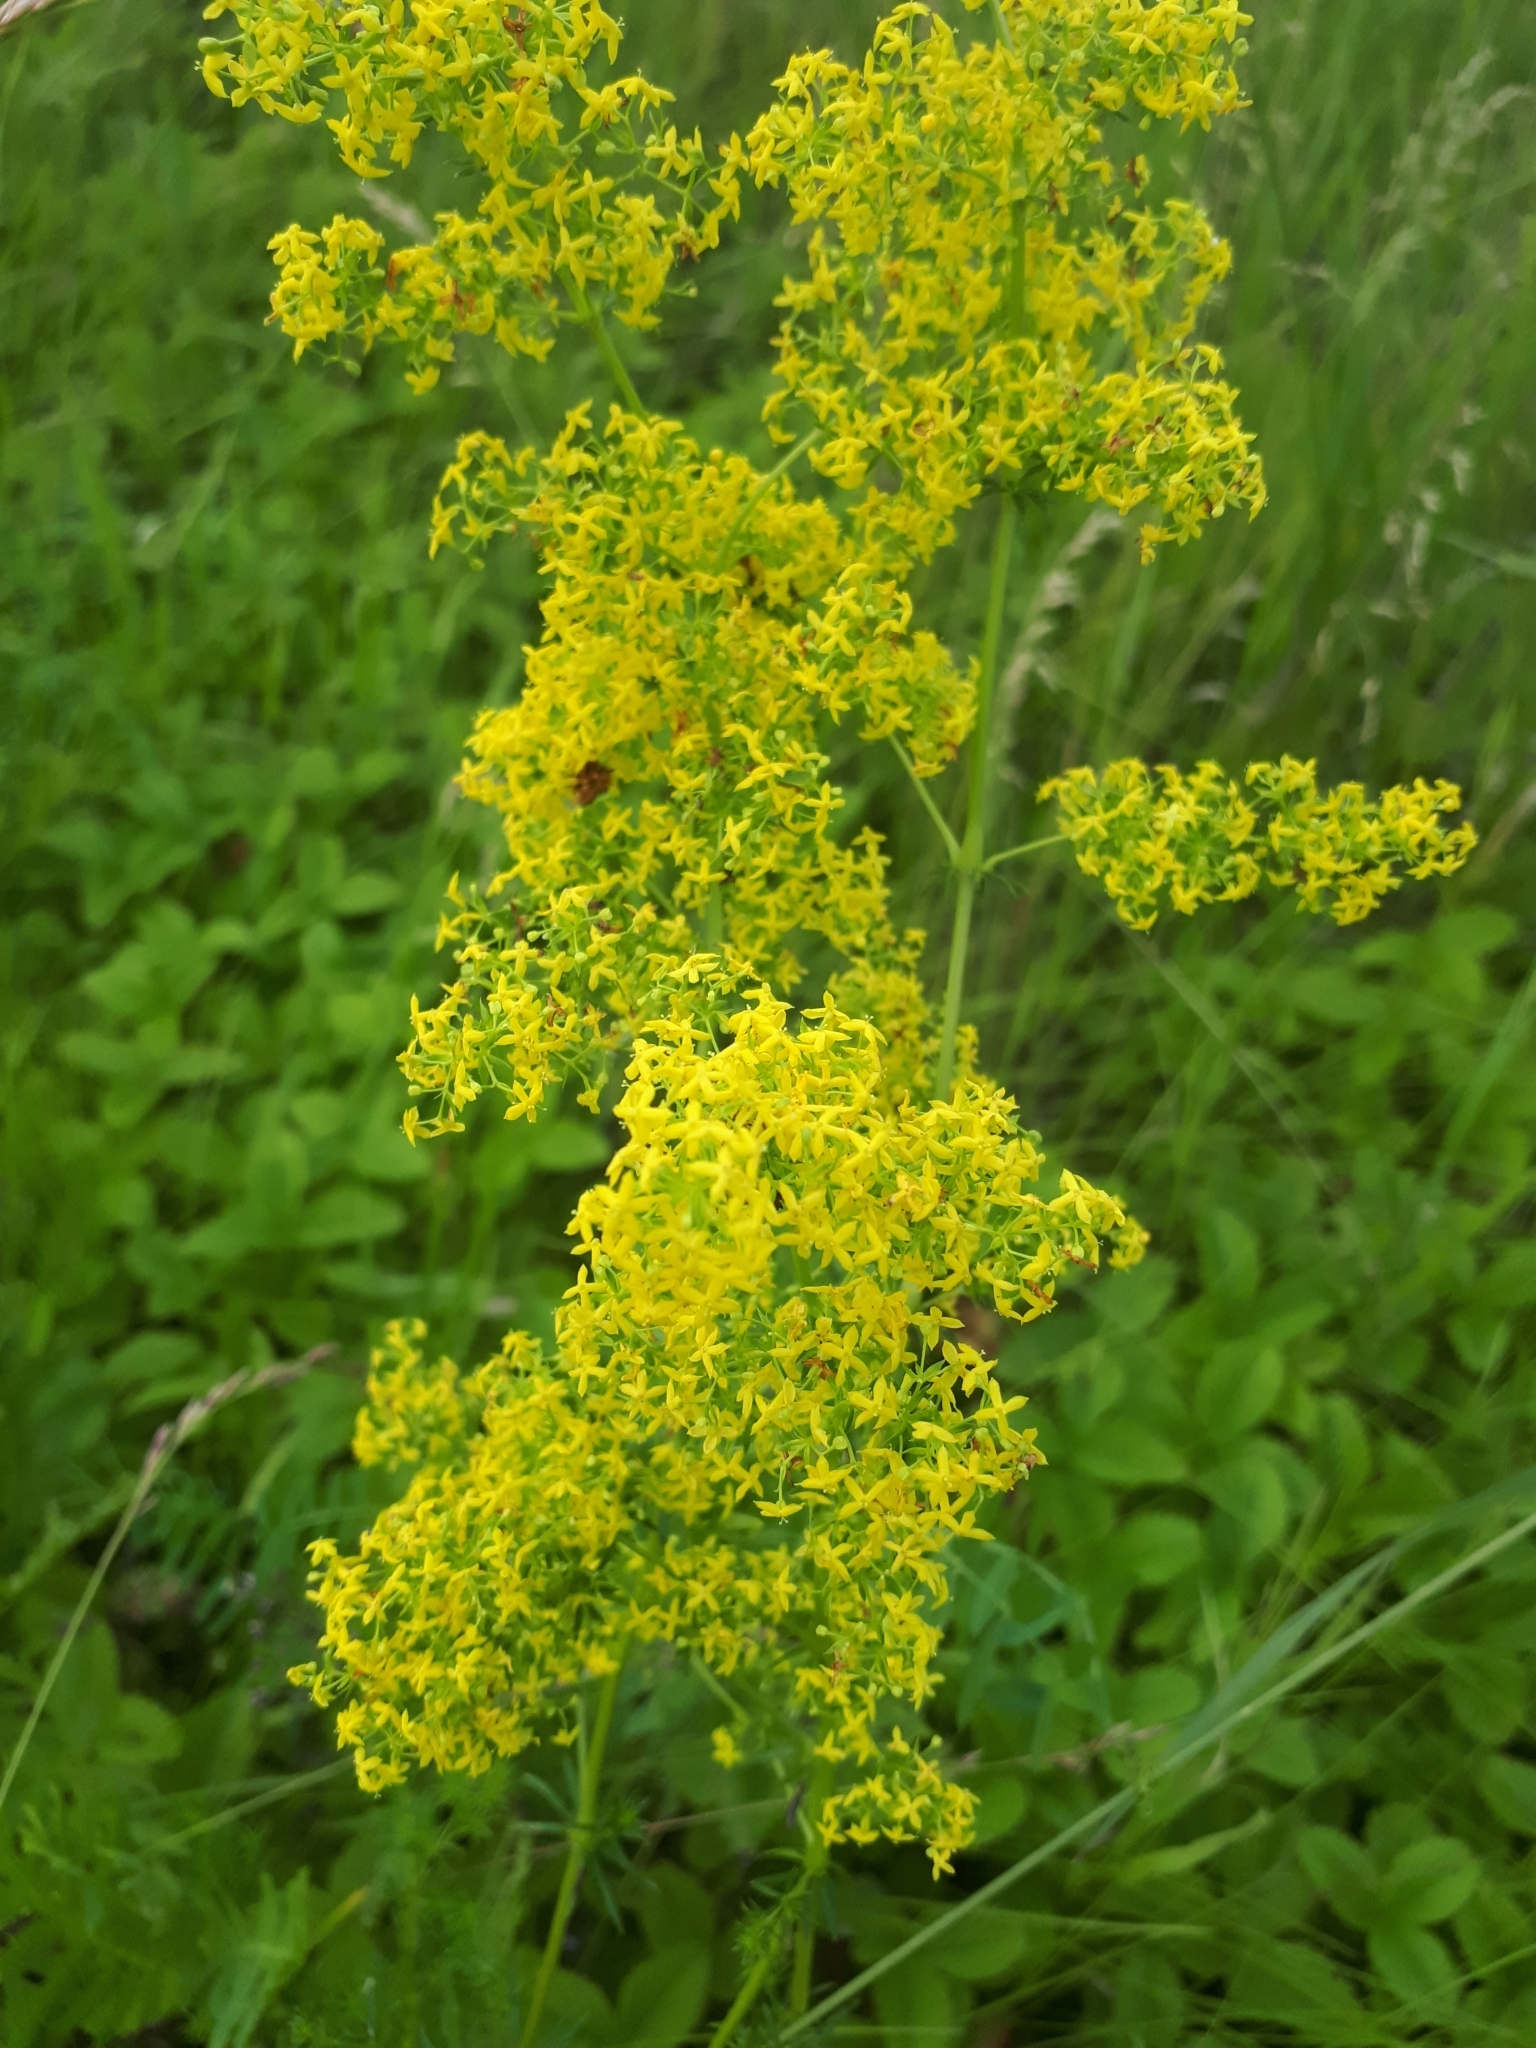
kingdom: Plantae
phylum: Tracheophyta
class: Magnoliopsida
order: Gentianales
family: Rubiaceae
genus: Galium
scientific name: Galium verum
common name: Lady's bedstraw
